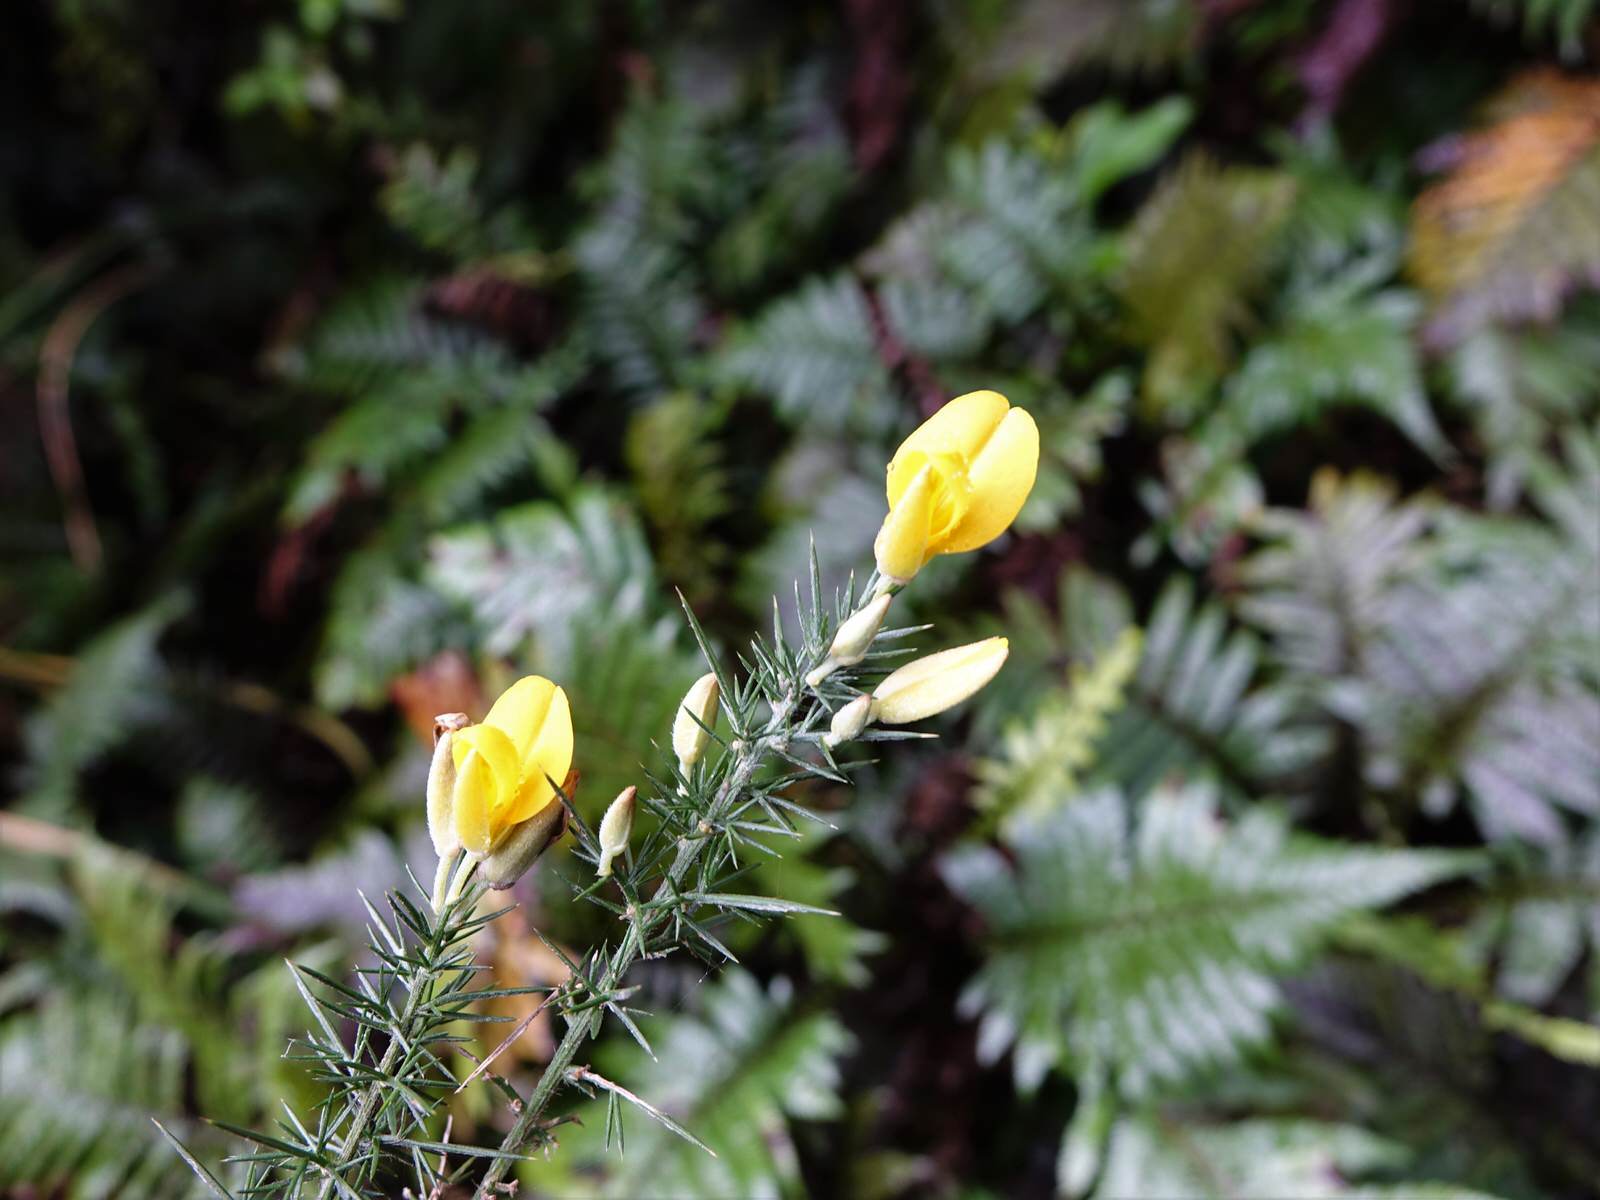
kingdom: Plantae
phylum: Tracheophyta
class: Magnoliopsida
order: Fabales
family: Fabaceae
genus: Ulex
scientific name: Ulex europaeus
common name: Common gorse
